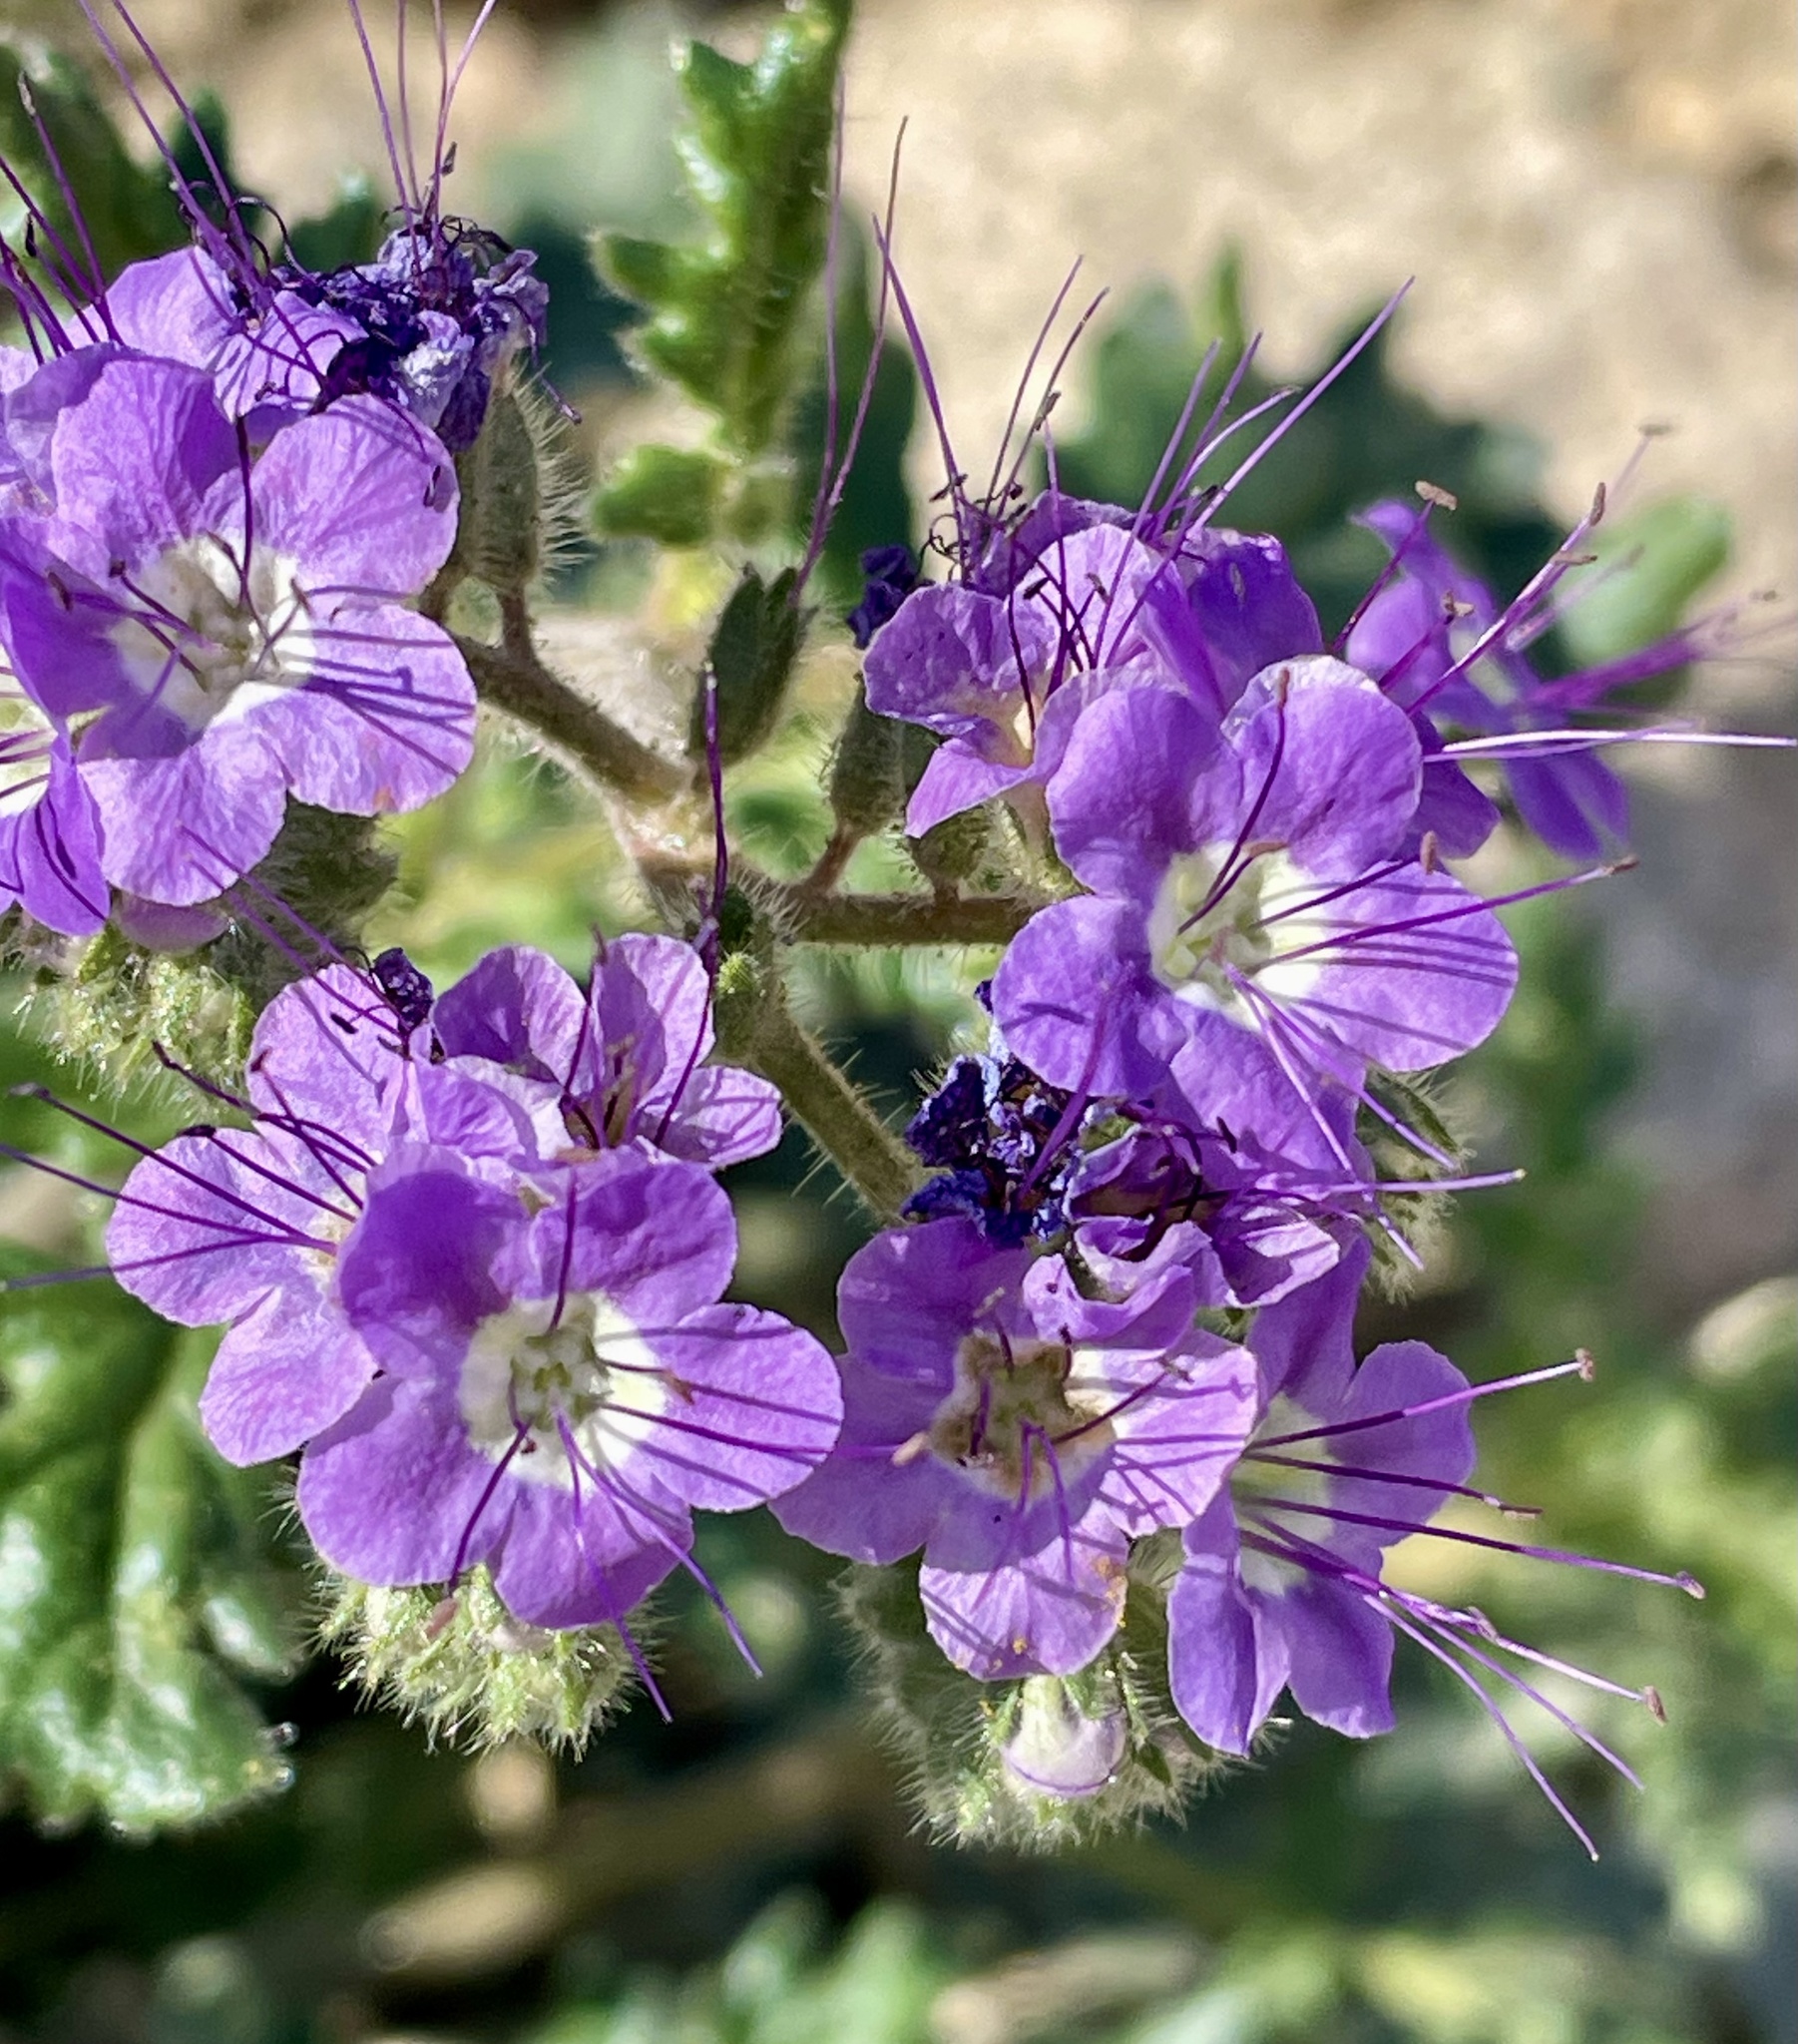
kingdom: Plantae
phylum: Tracheophyta
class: Magnoliopsida
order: Boraginales
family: Hydrophyllaceae
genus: Phacelia
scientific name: Phacelia crenulata
